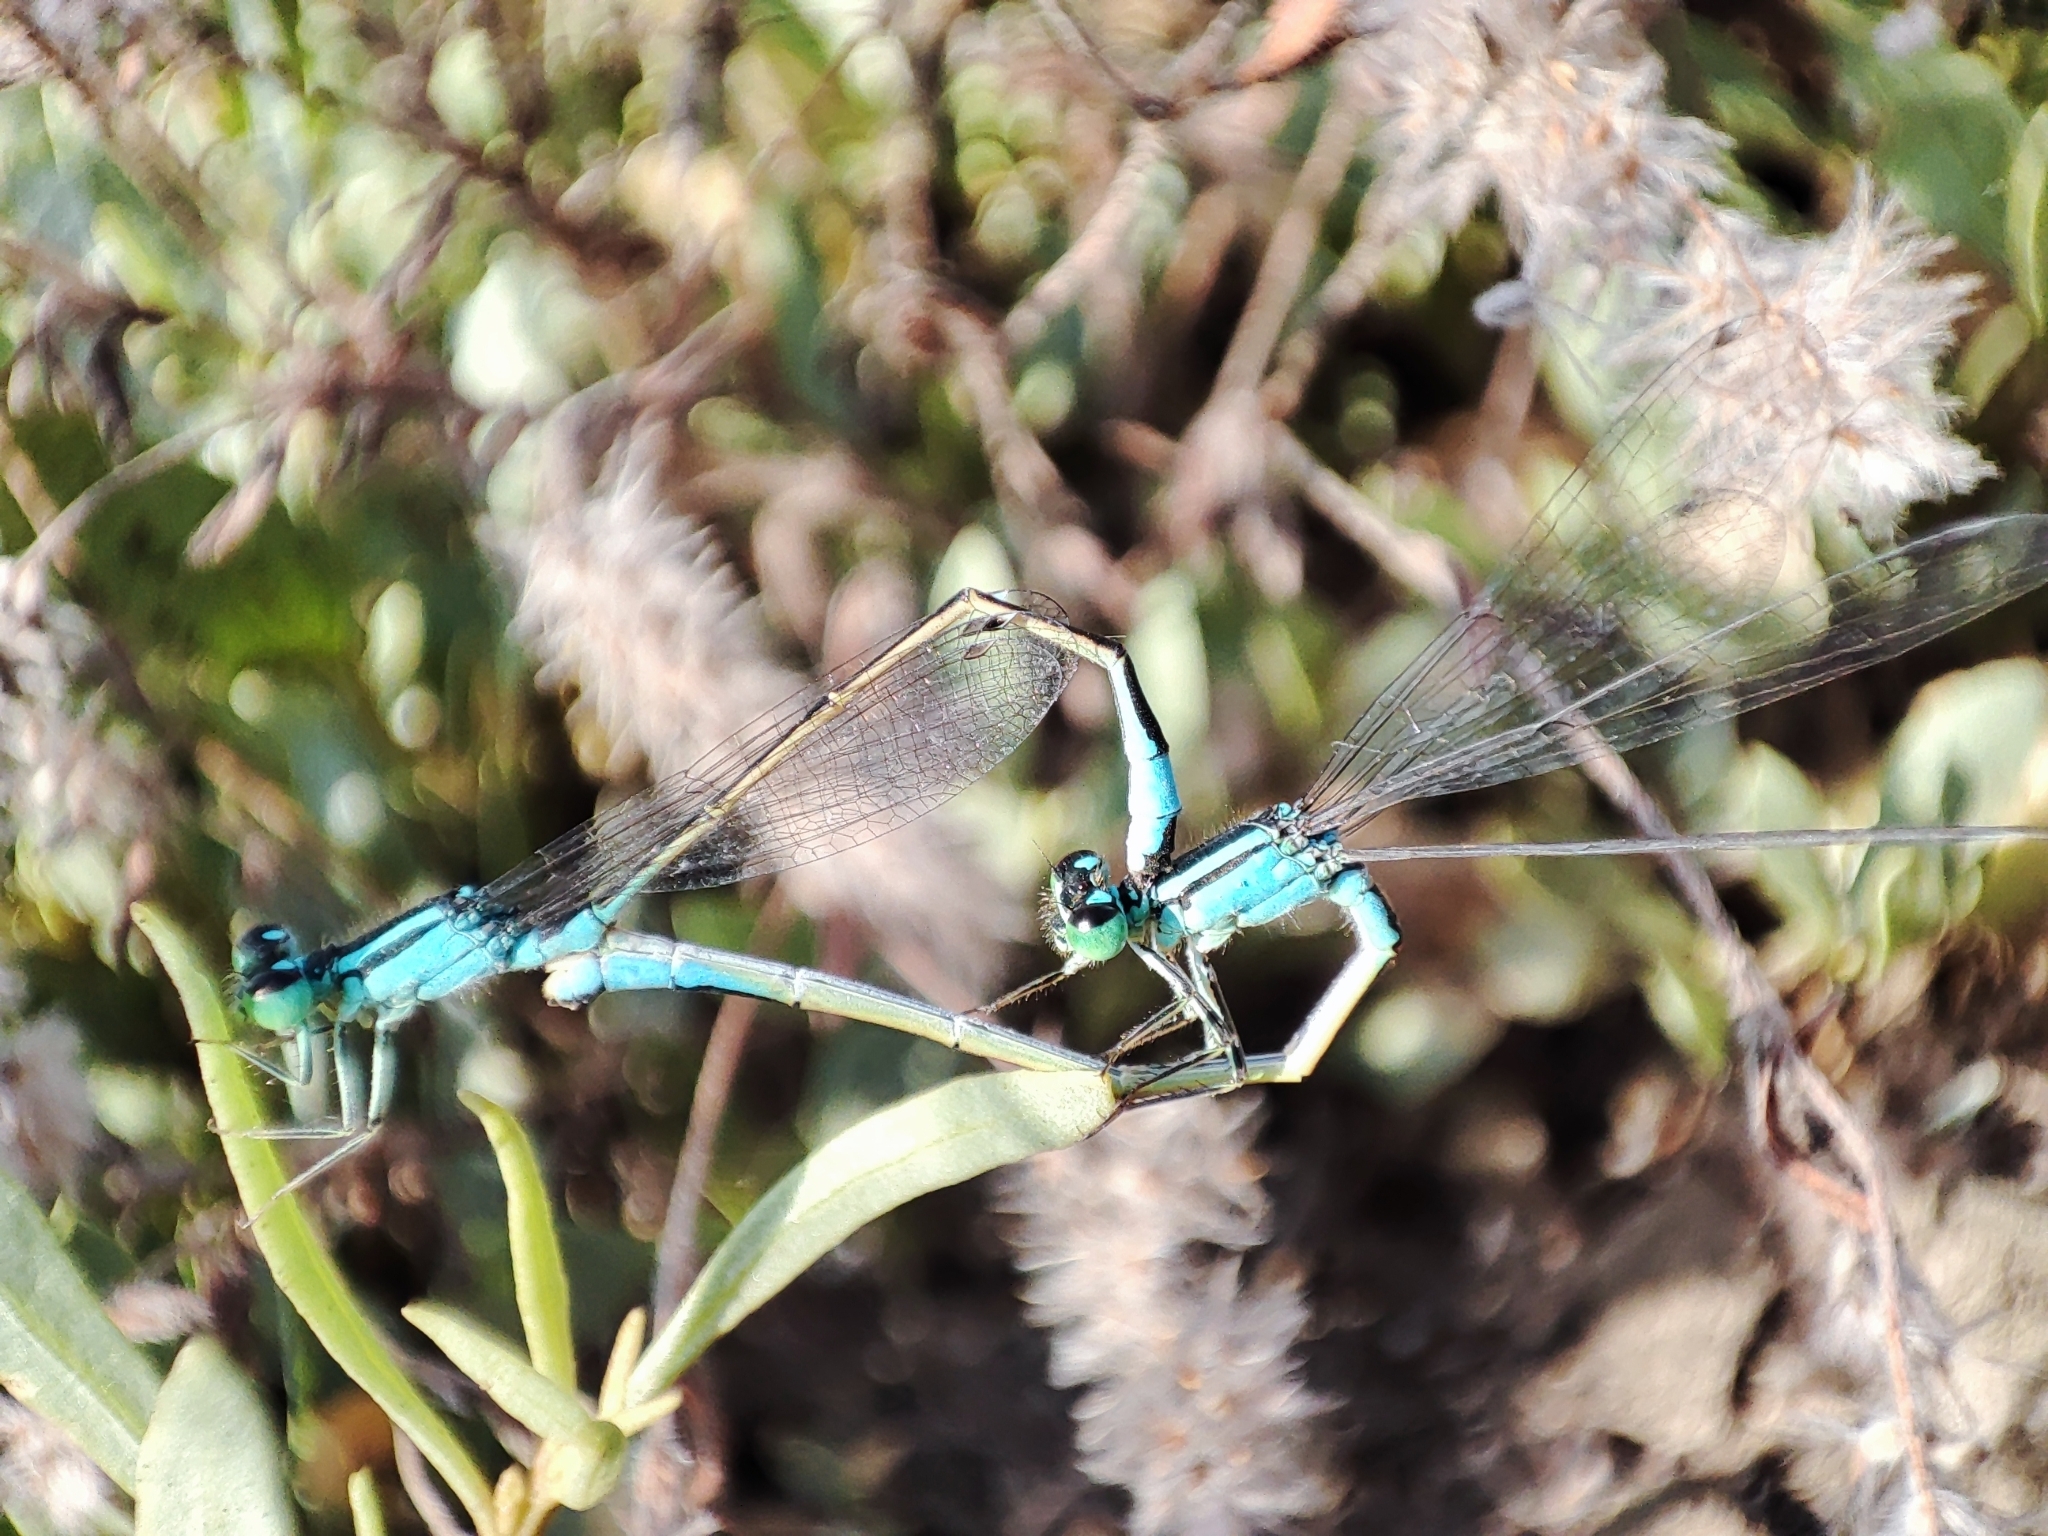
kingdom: Animalia
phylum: Arthropoda
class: Insecta
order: Odonata
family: Coenagrionidae
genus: Ischnura
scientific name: Ischnura elegans
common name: Blue-tailed damselfly
